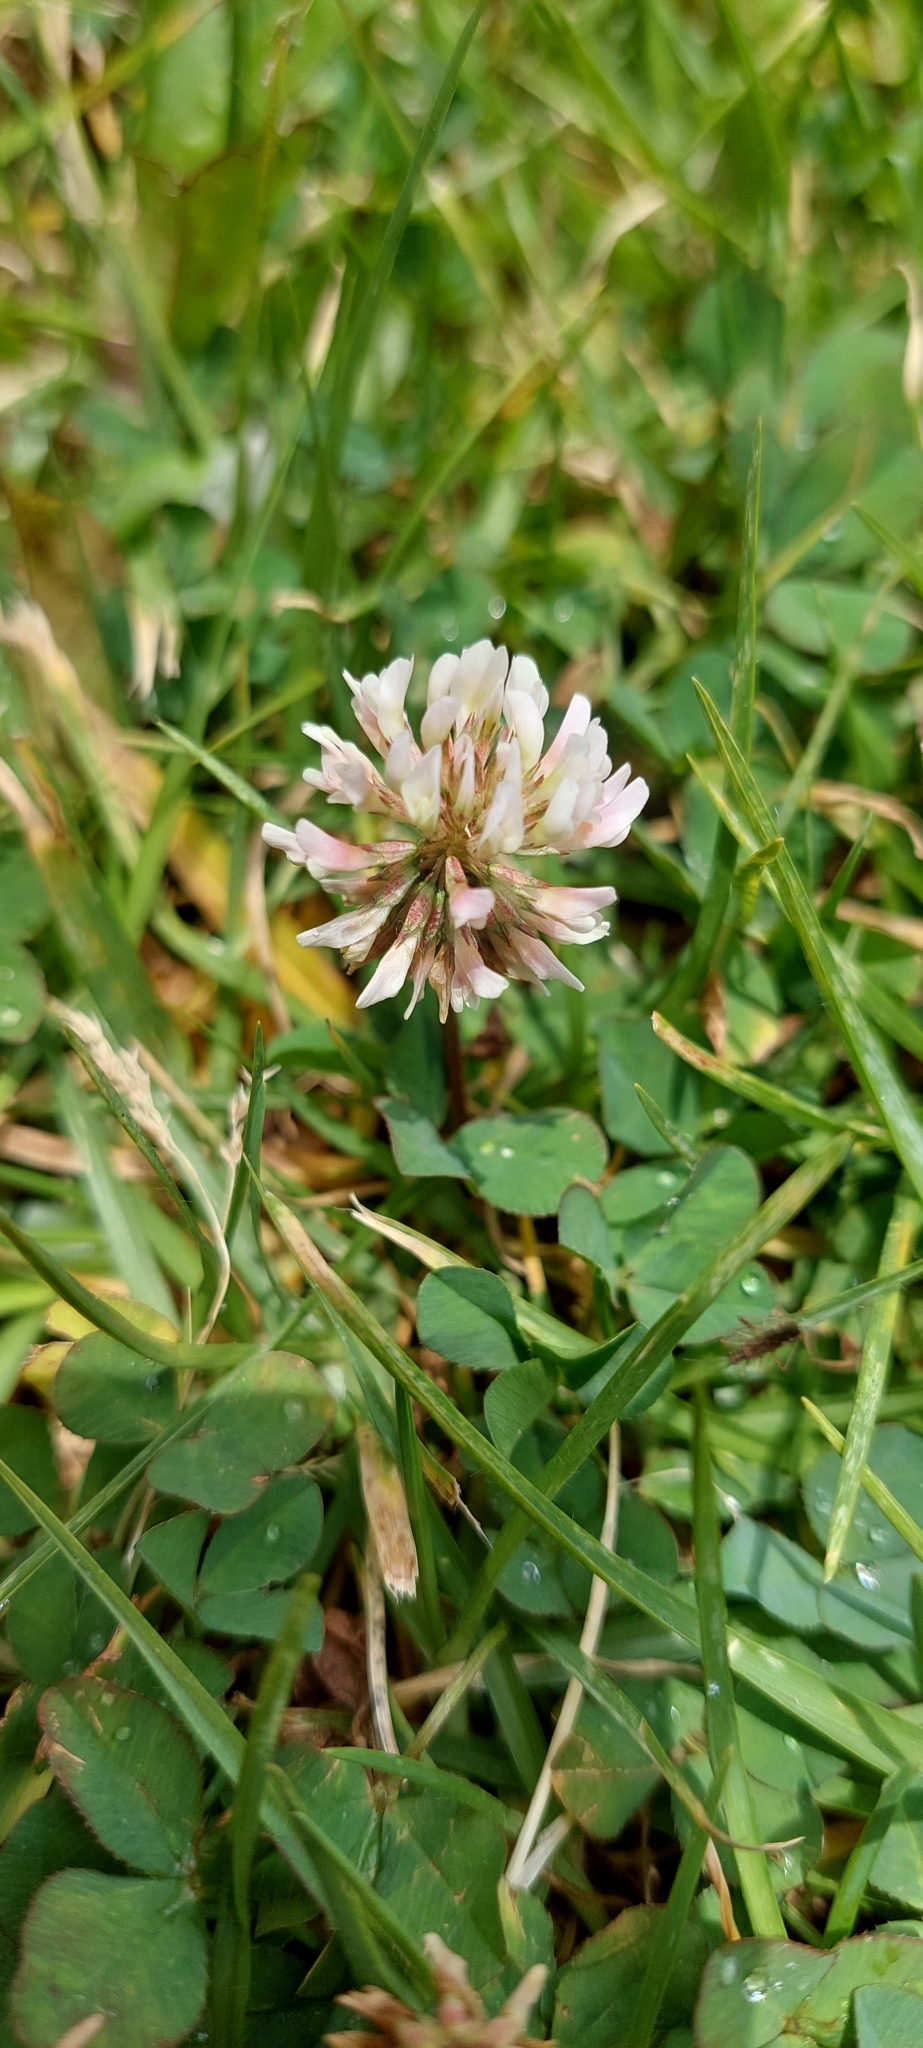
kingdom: Plantae
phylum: Tracheophyta
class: Magnoliopsida
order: Fabales
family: Fabaceae
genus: Trifolium
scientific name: Trifolium repens
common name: White clover
